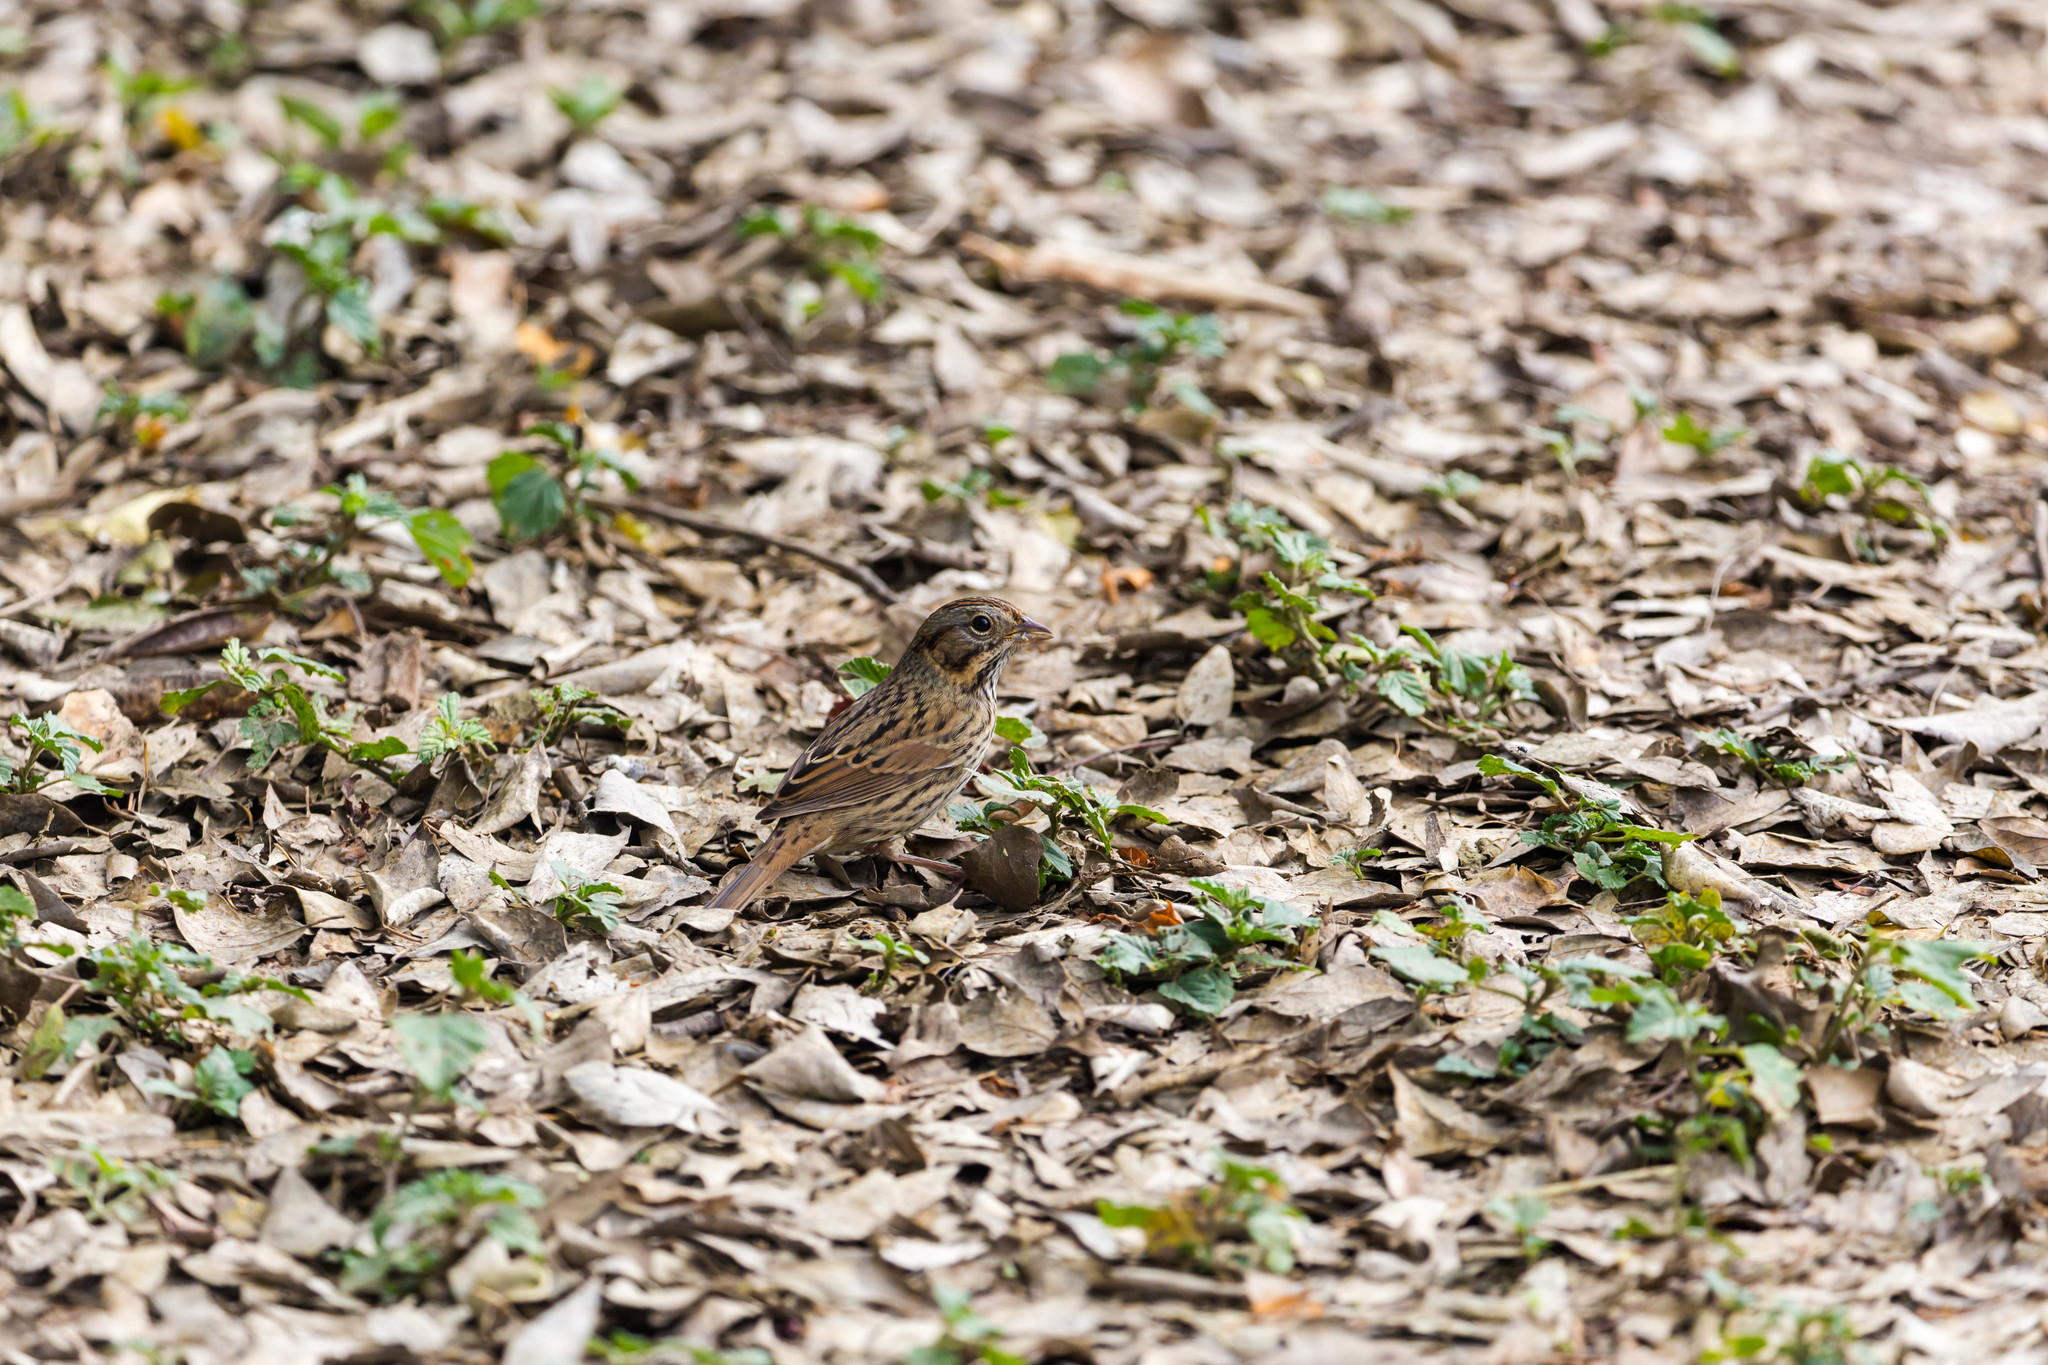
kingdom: Animalia
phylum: Chordata
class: Aves
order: Passeriformes
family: Passerellidae
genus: Melospiza
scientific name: Melospiza lincolnii
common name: Lincoln's sparrow
